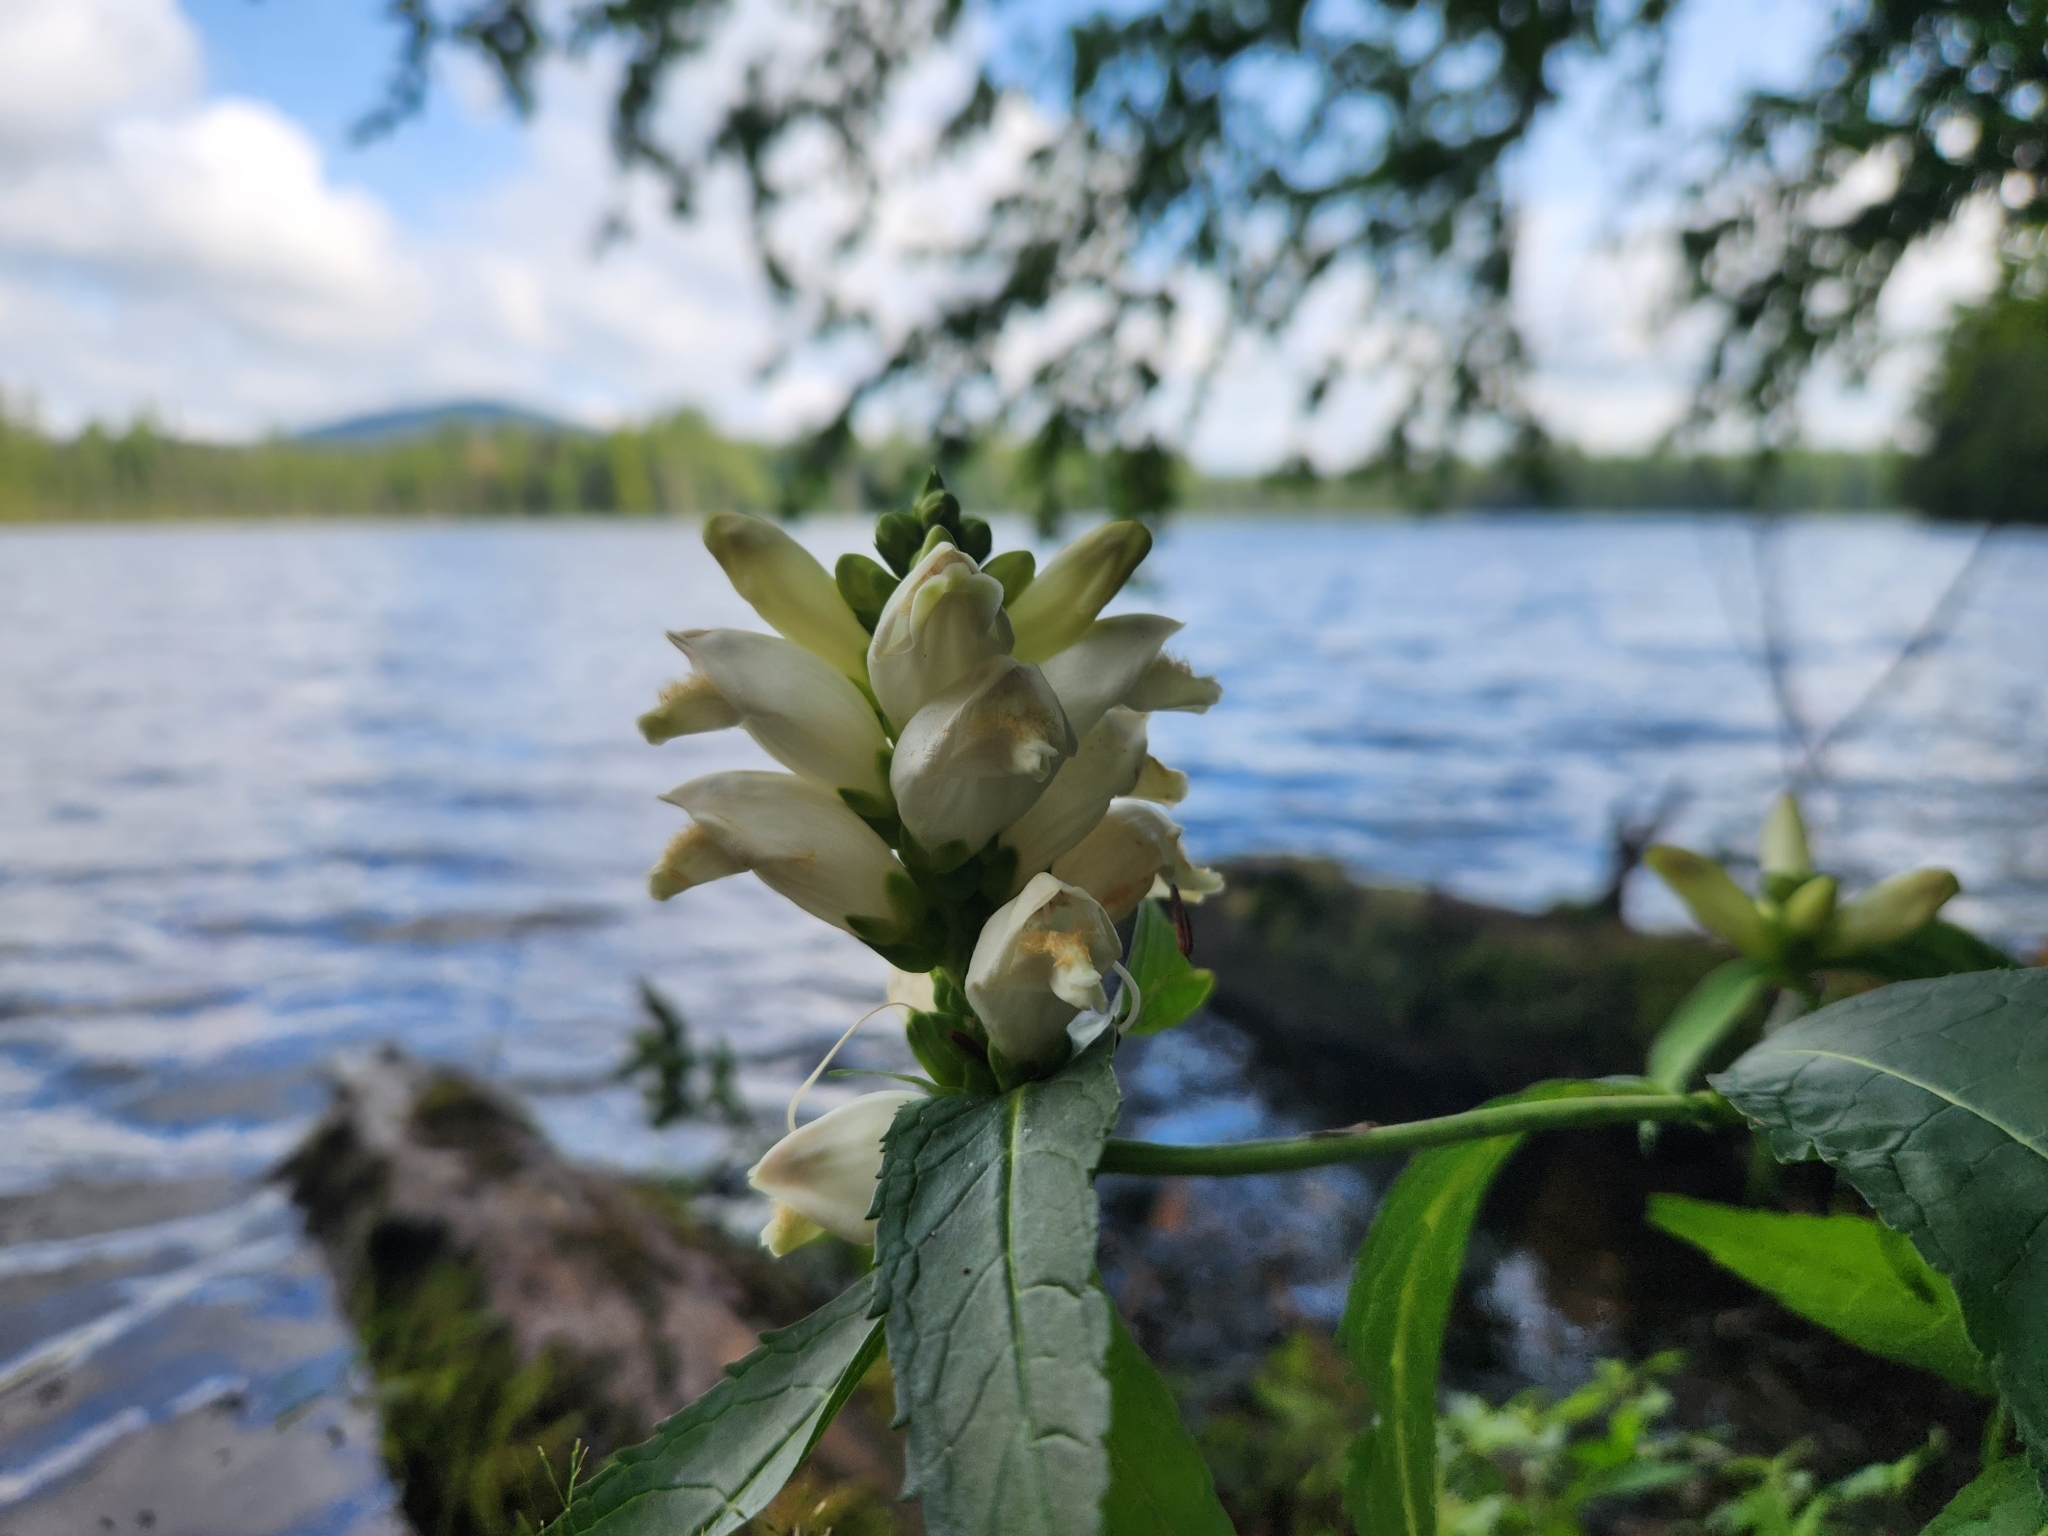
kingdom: Plantae
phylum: Tracheophyta
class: Magnoliopsida
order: Lamiales
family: Plantaginaceae
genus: Chelone
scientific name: Chelone glabra
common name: Snakehead
